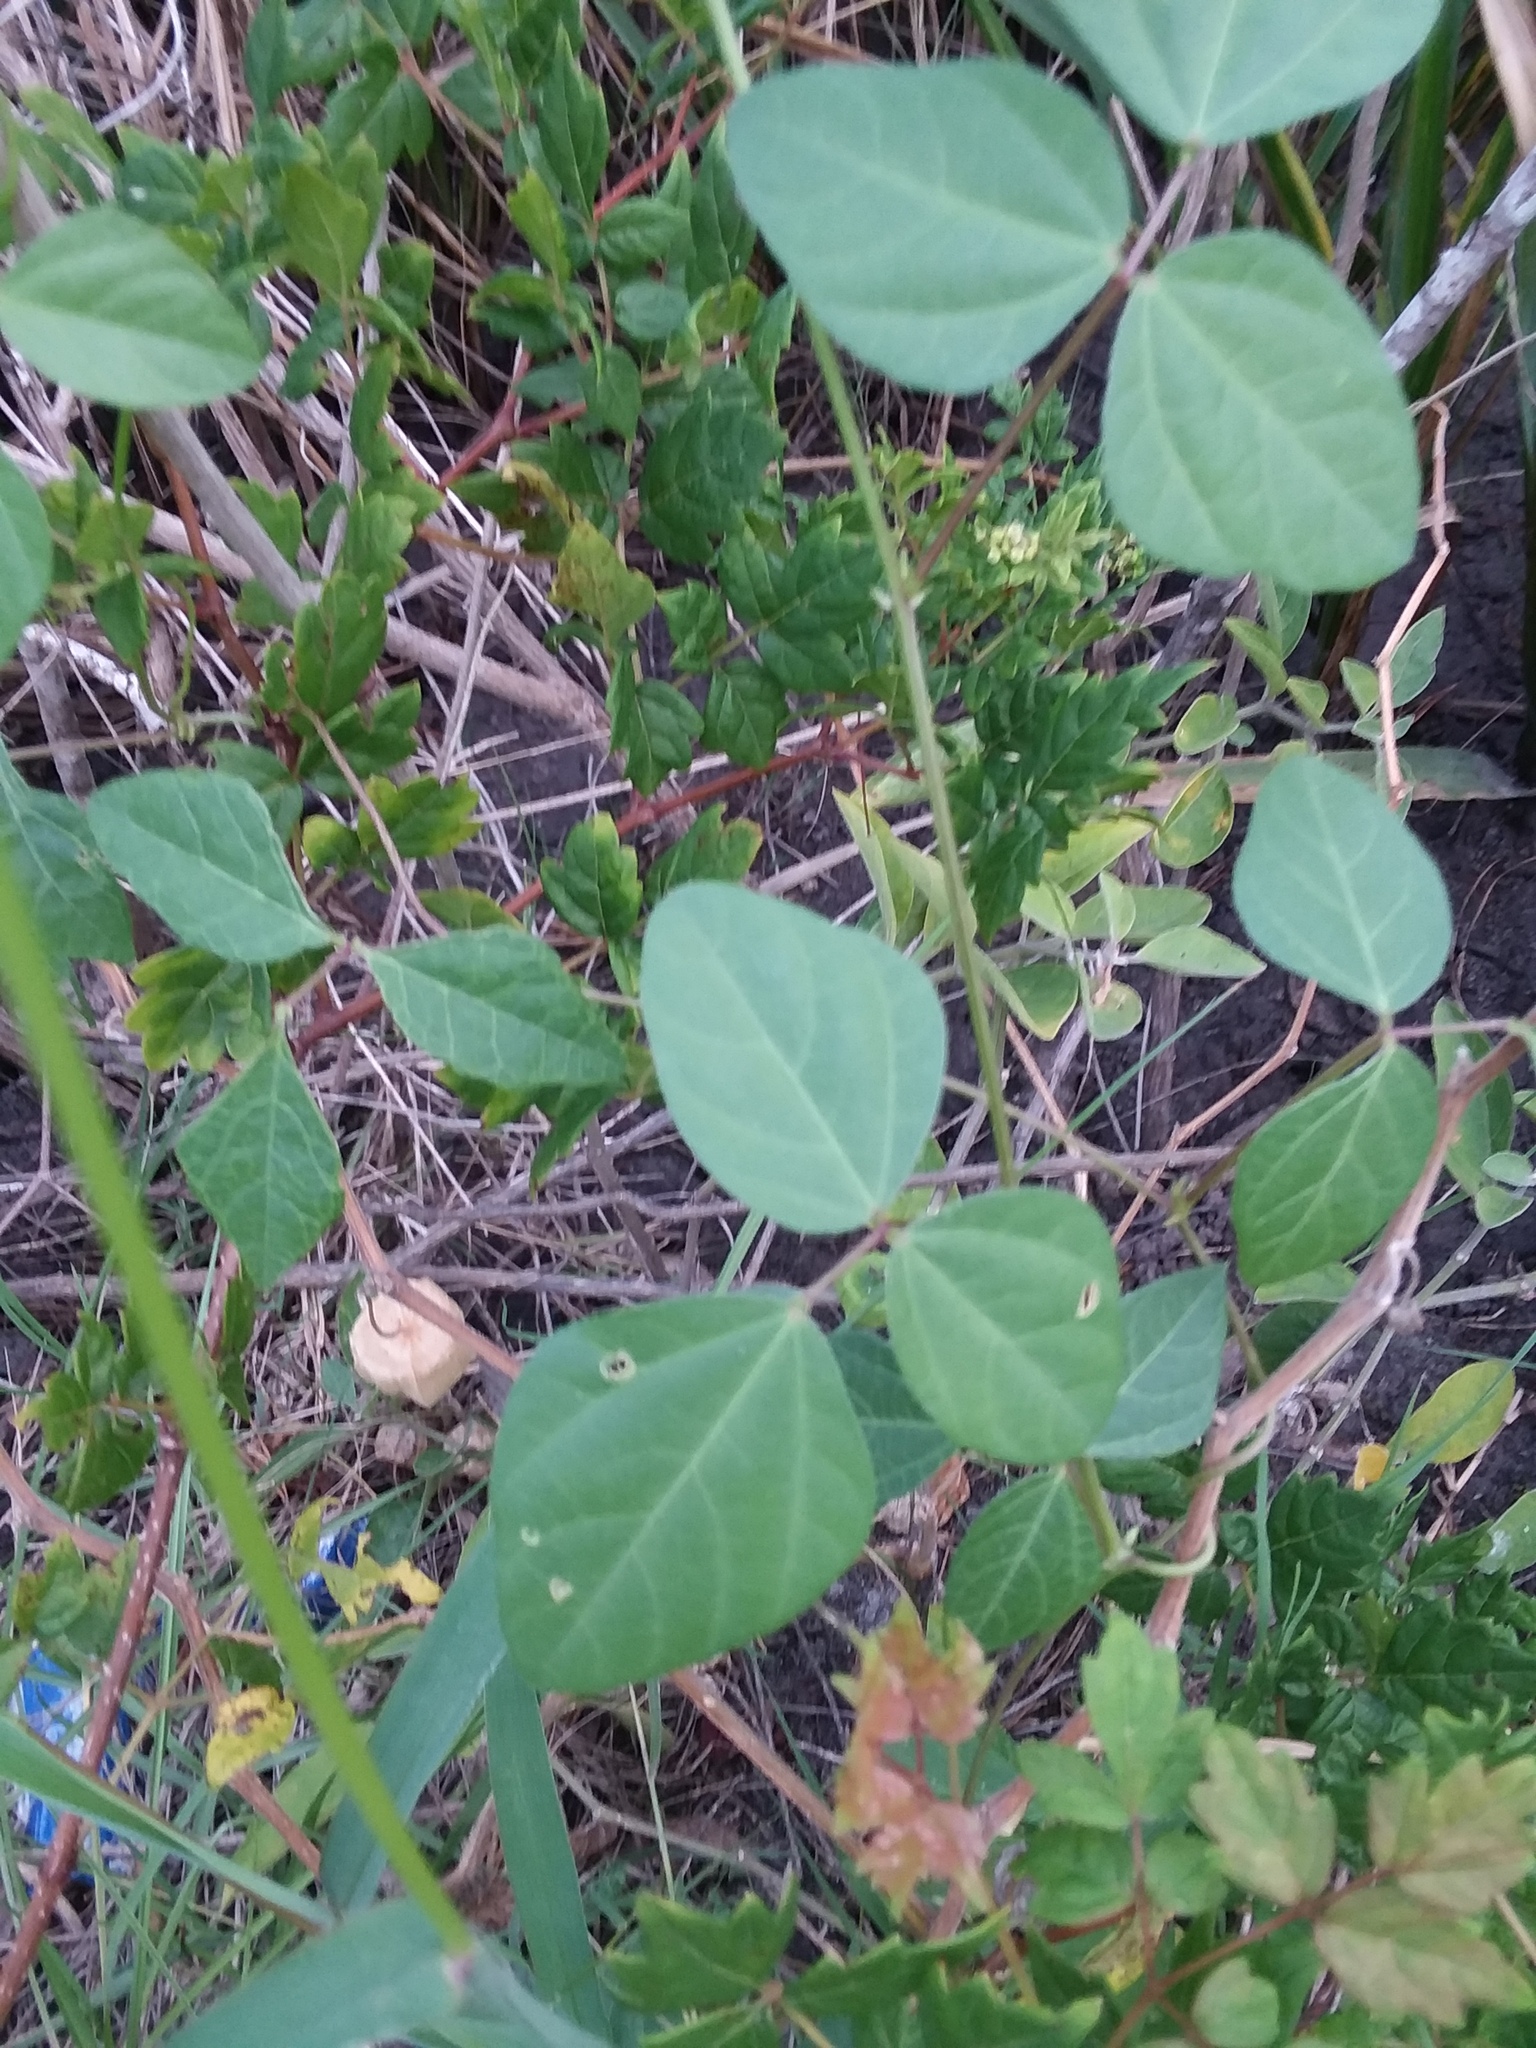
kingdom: Plantae
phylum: Tracheophyta
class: Magnoliopsida
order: Fabales
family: Fabaceae
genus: Strophostyles
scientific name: Strophostyles helvola
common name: Trailing wild bean
